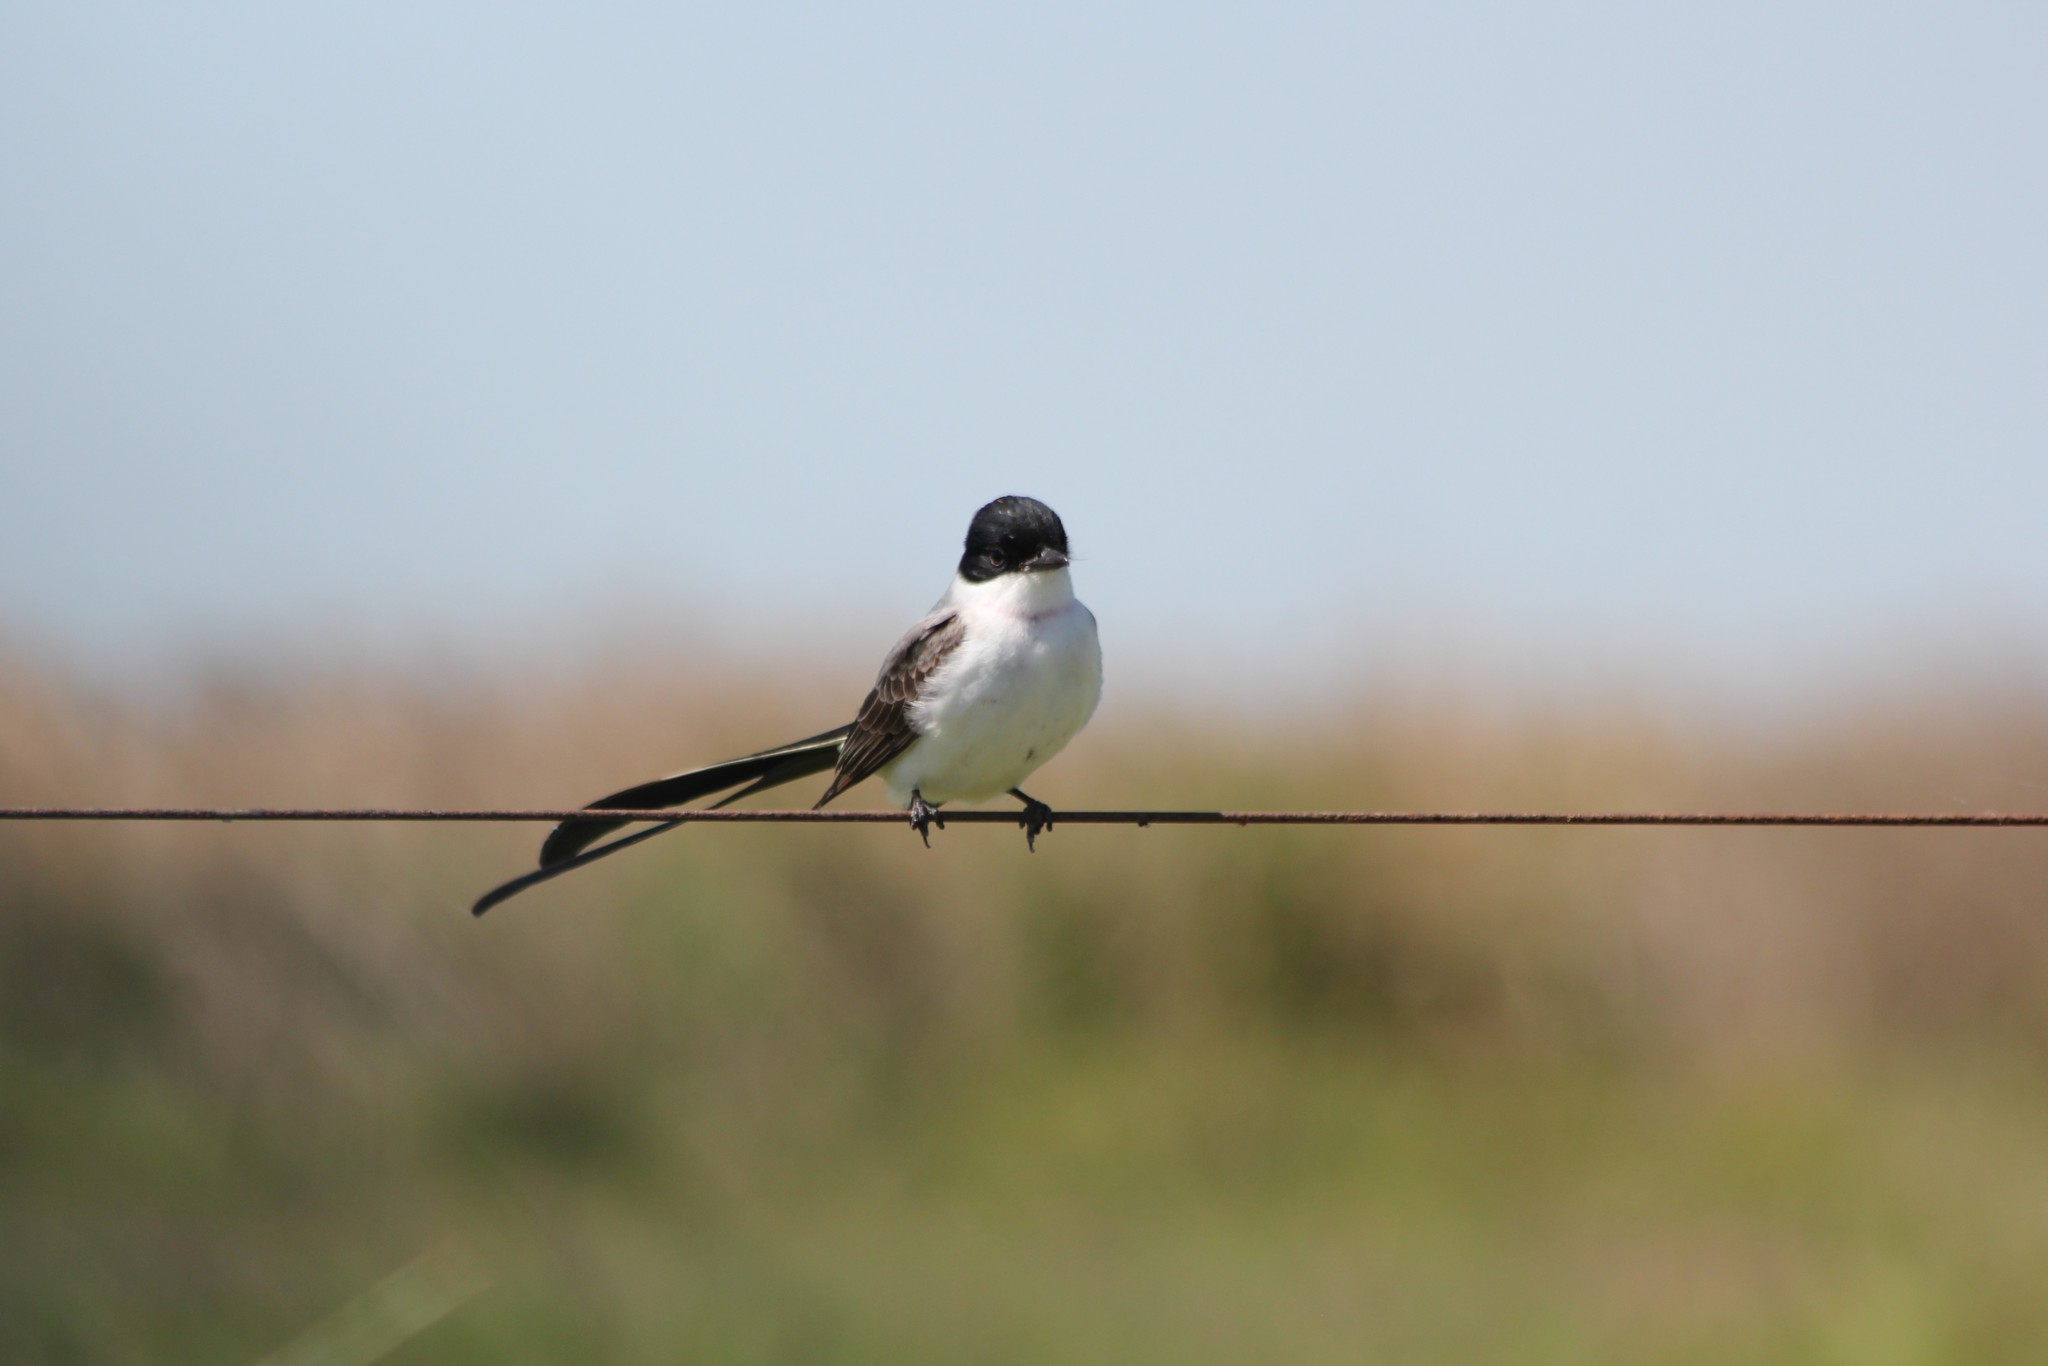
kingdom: Animalia
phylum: Chordata
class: Aves
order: Passeriformes
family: Tyrannidae
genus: Tyrannus
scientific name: Tyrannus savana
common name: Fork-tailed flycatcher
